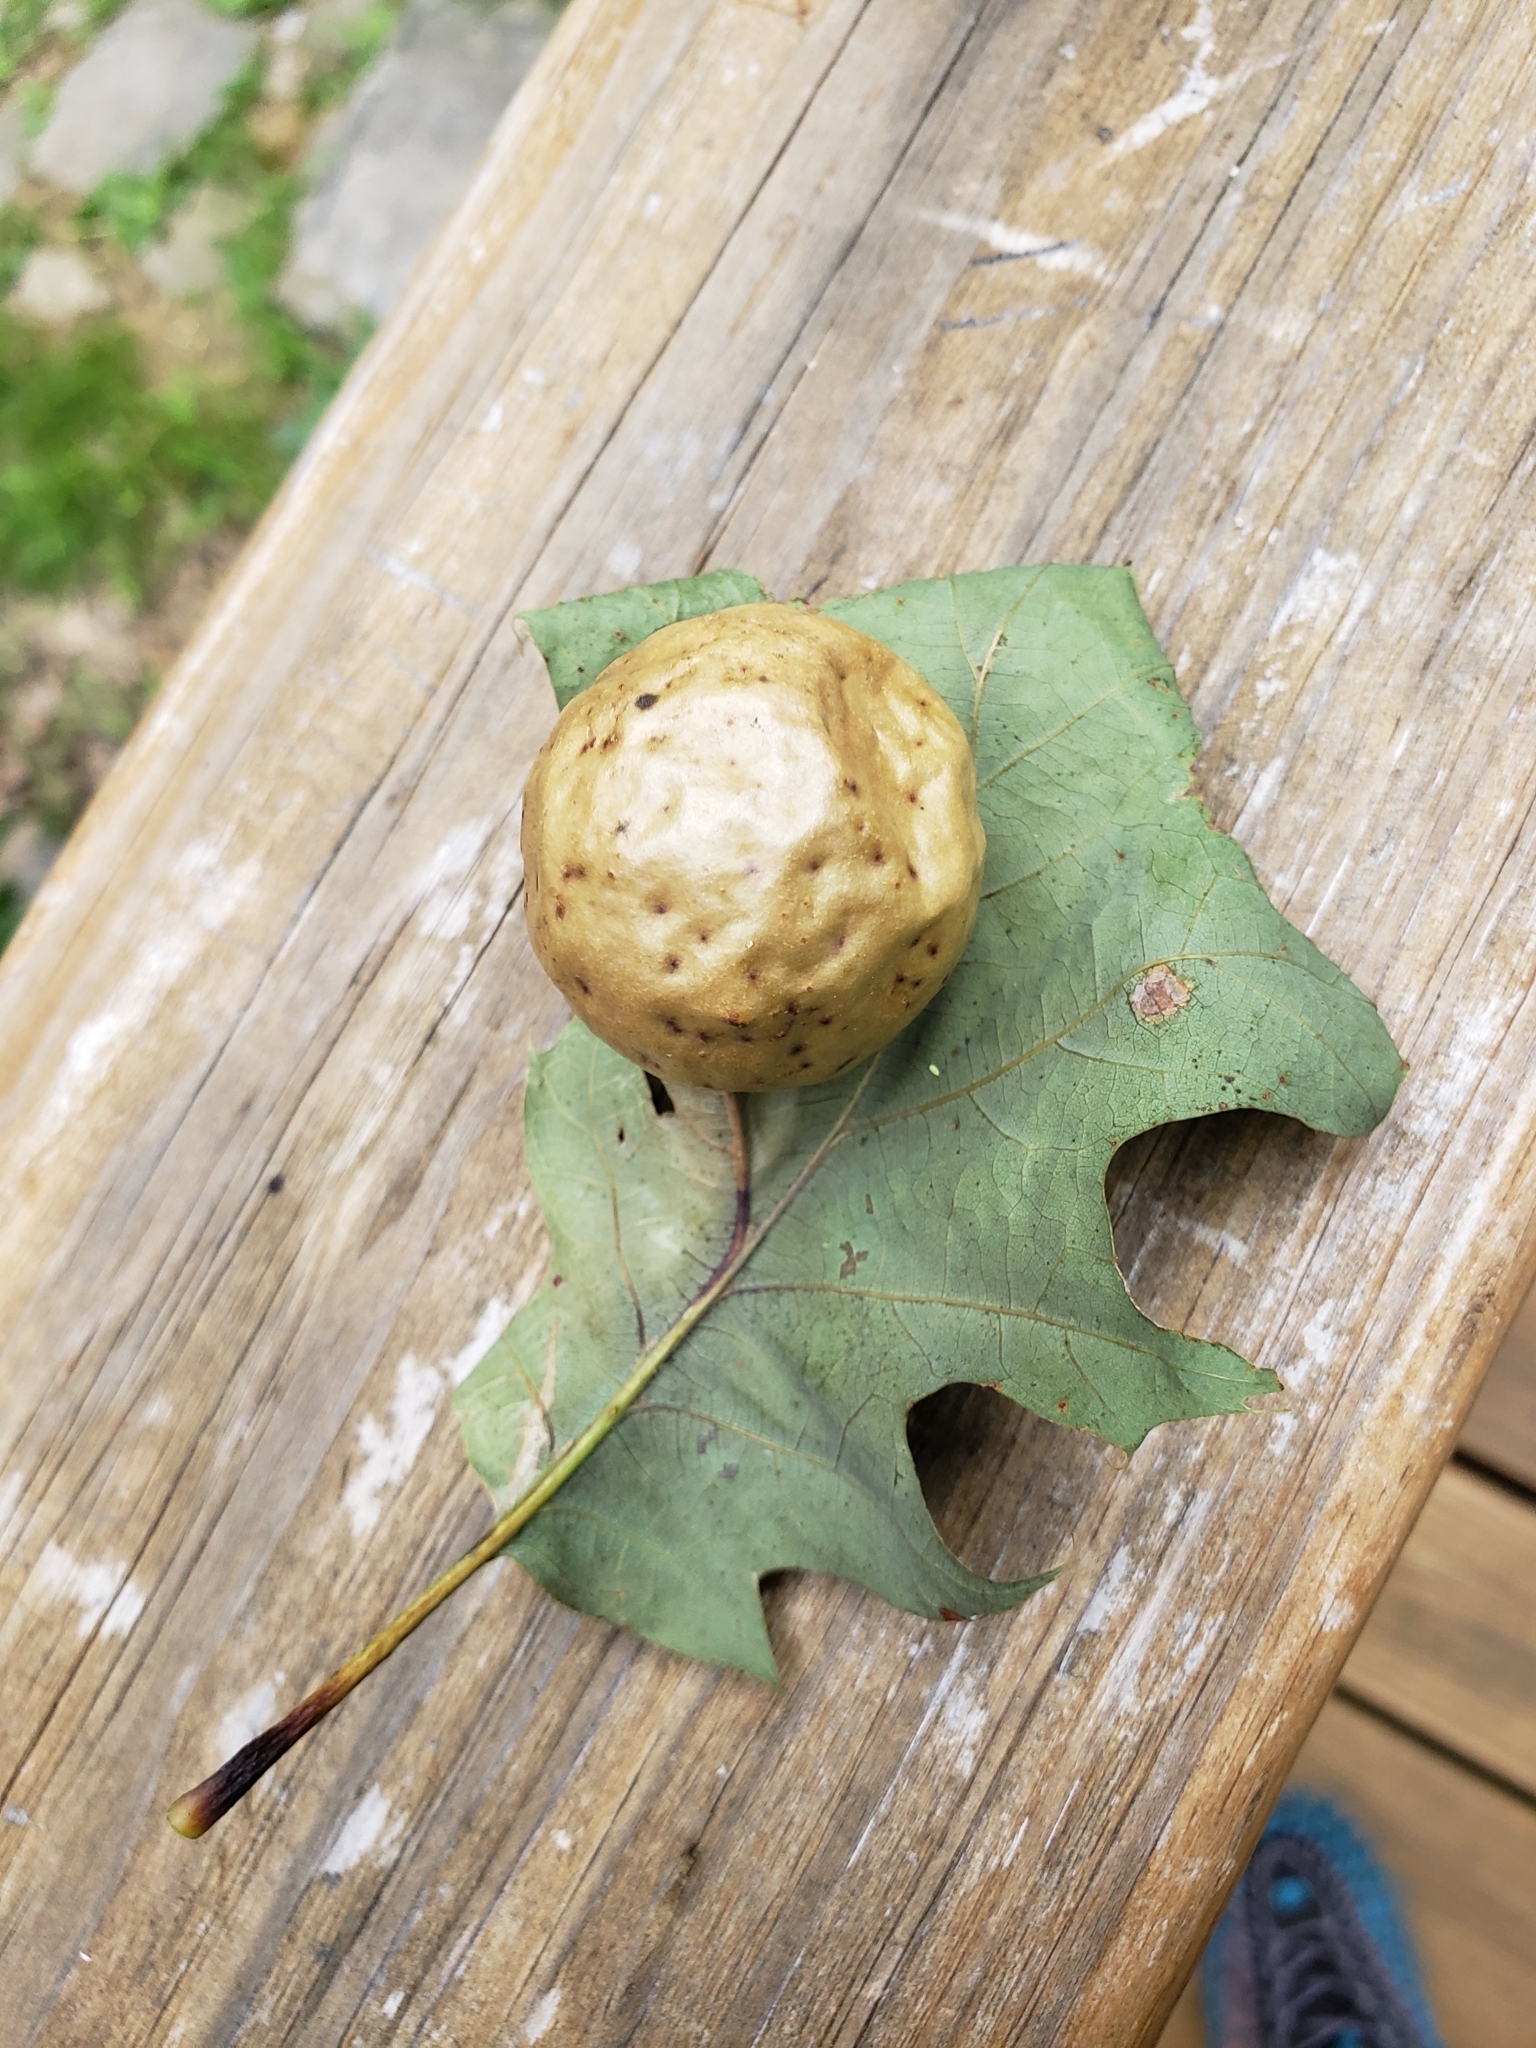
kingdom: Animalia
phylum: Arthropoda
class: Insecta
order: Hymenoptera
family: Cynipidae
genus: Amphibolips
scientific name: Amphibolips
